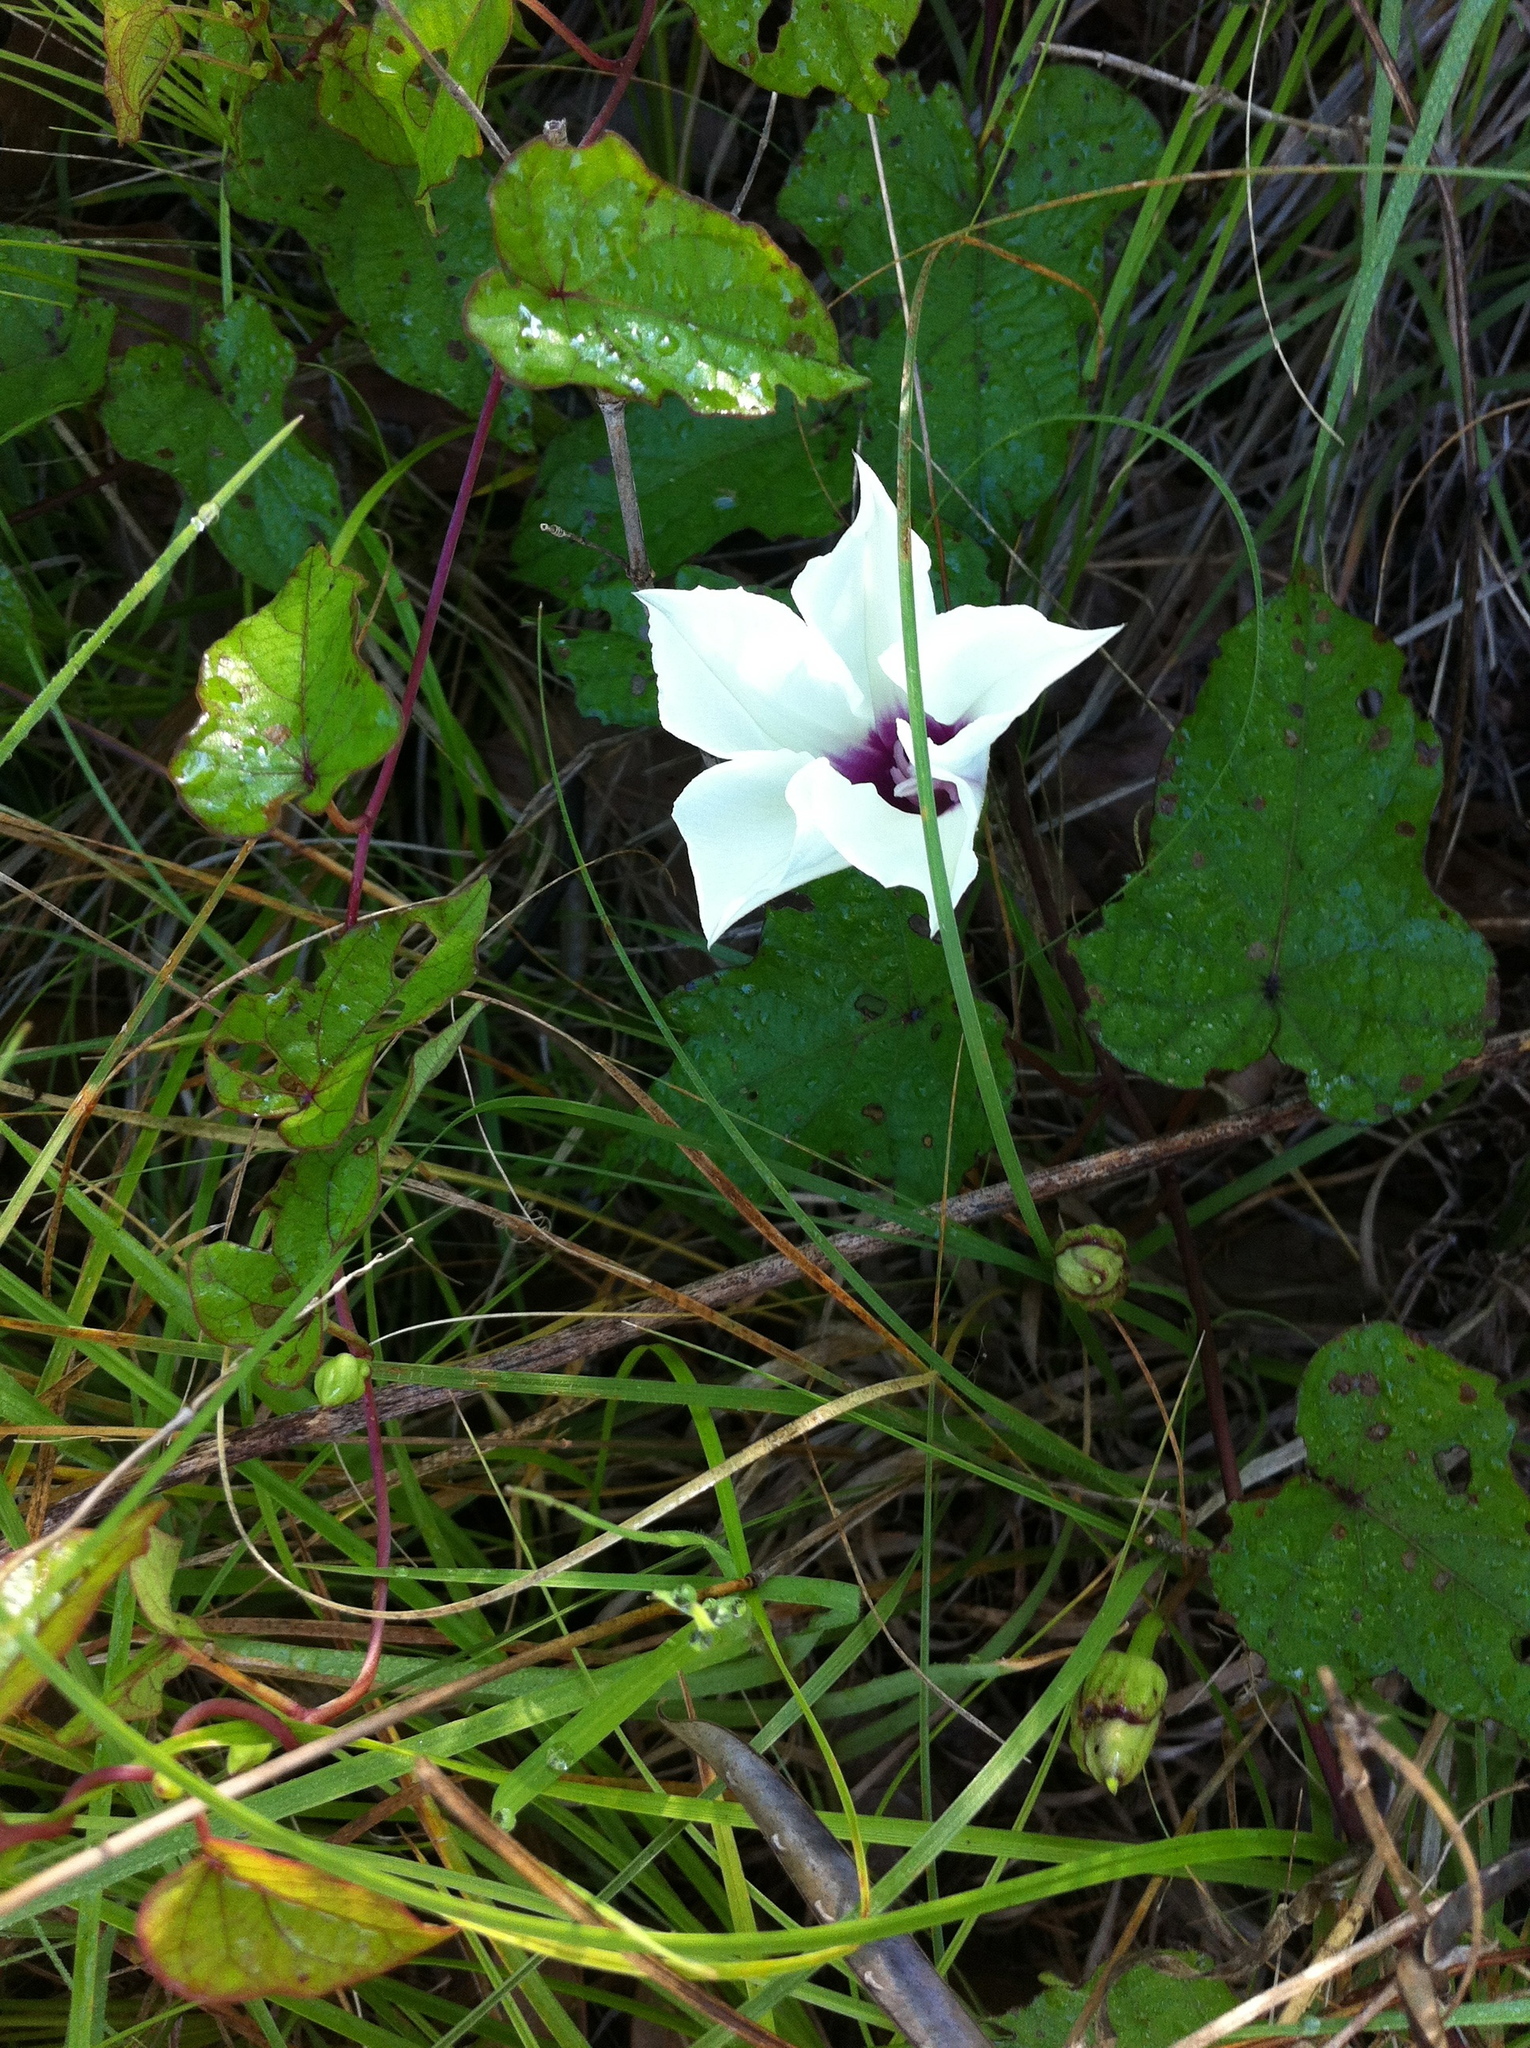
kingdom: Plantae
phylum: Tracheophyta
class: Magnoliopsida
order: Solanales
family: Convolvulaceae
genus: Ipomoea
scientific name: Ipomoea pandurata
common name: Man-of-the-earth
